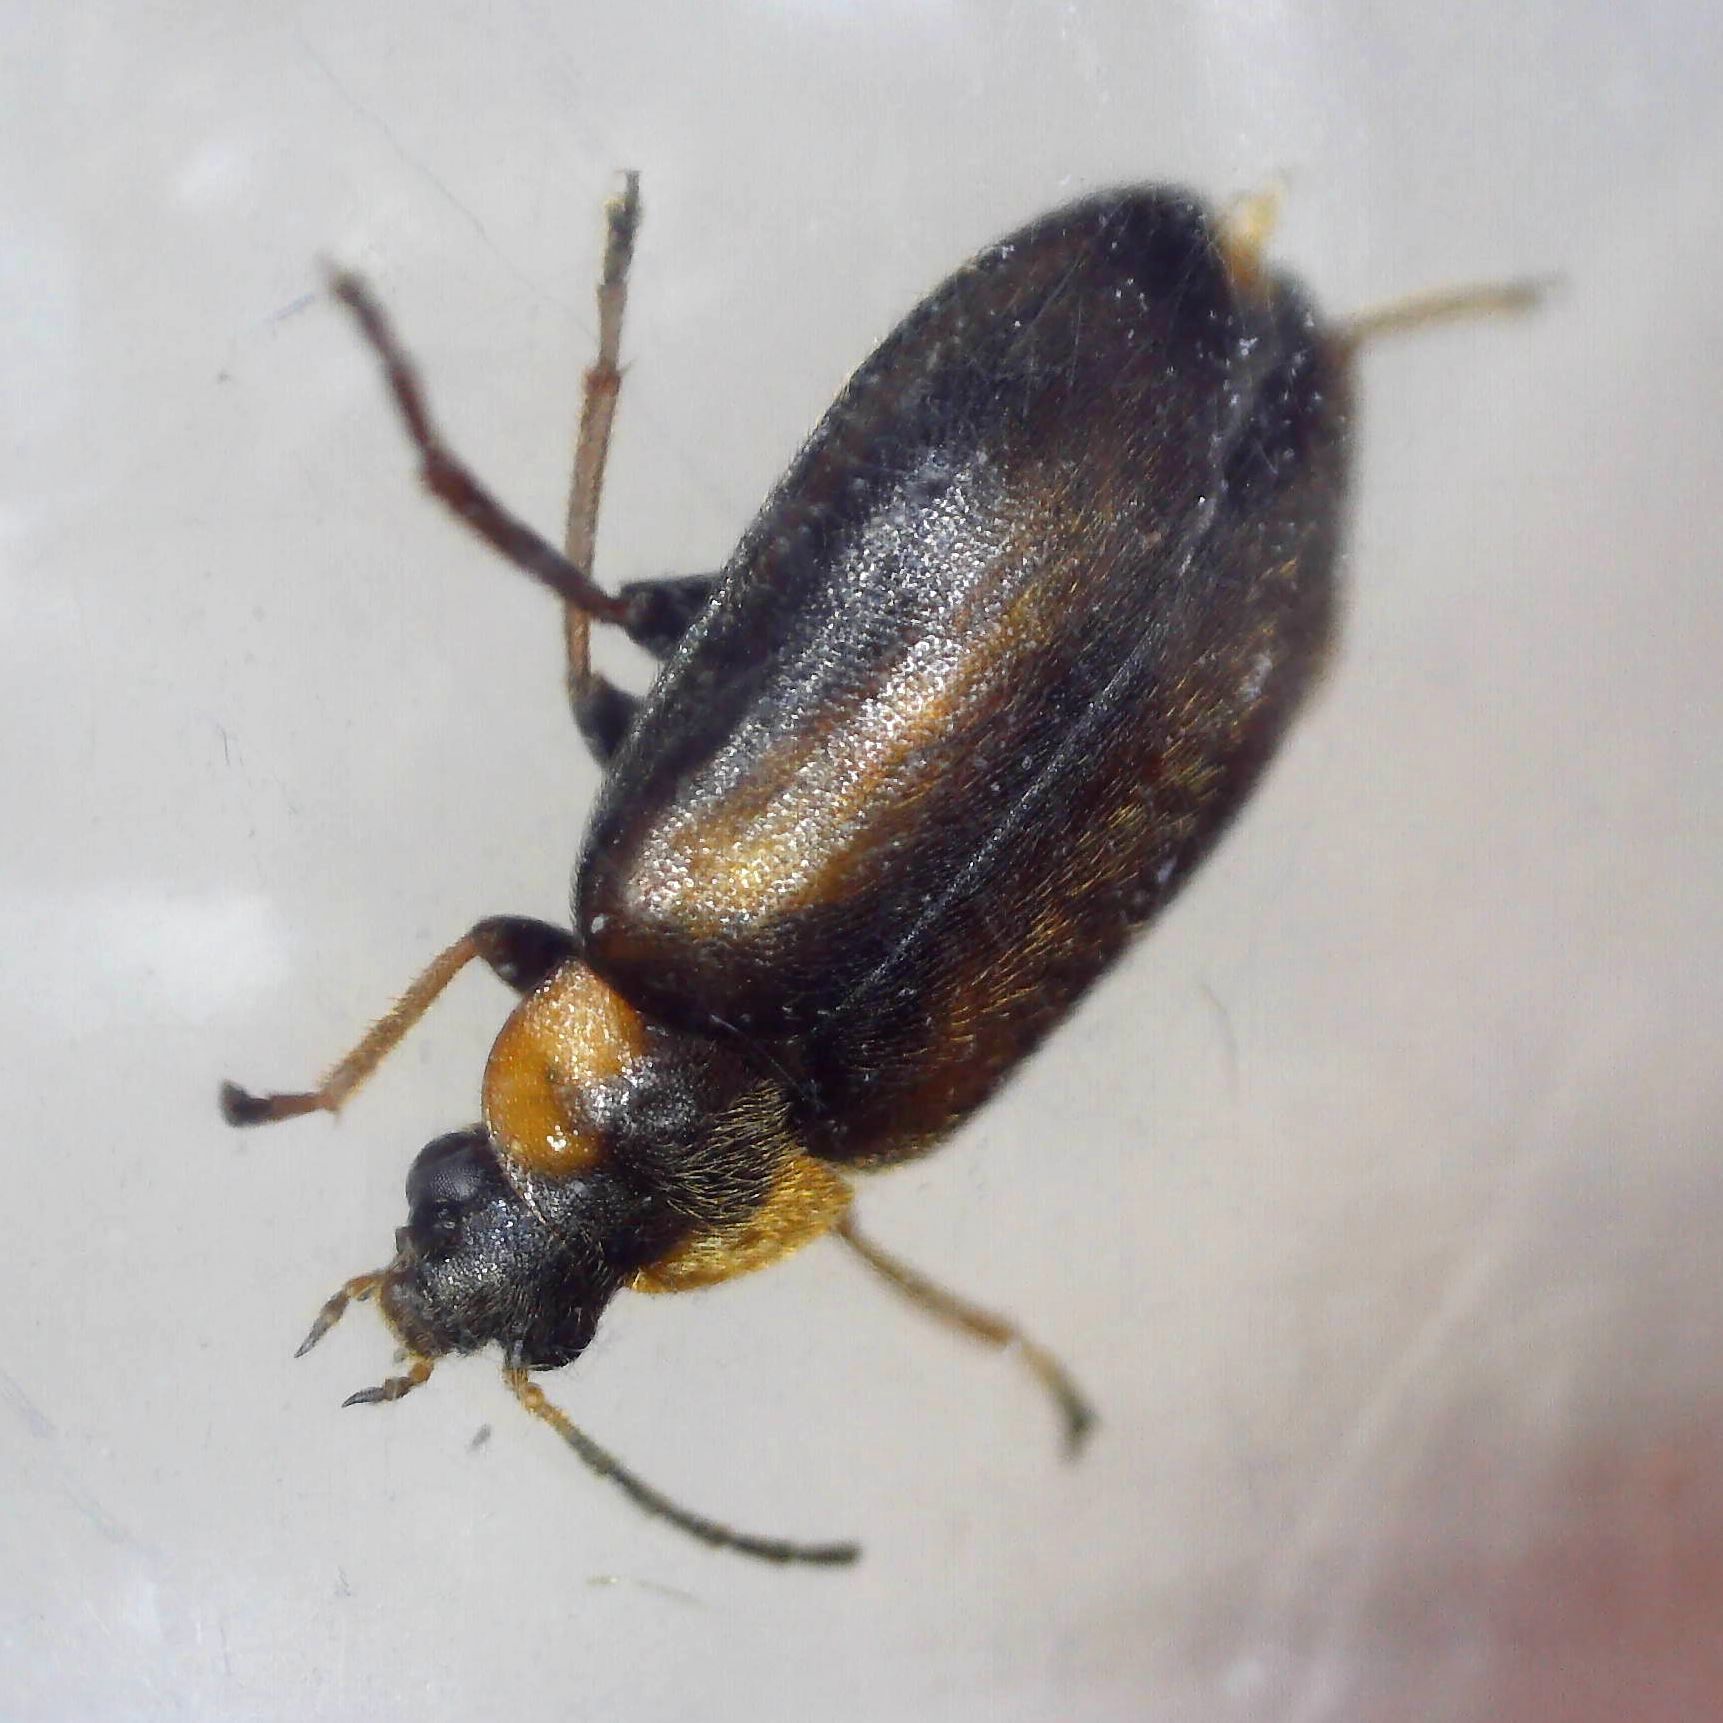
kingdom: Animalia
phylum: Arthropoda
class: Insecta
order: Coleoptera
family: Scirtidae
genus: Odeles
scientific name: Odeles marginata
